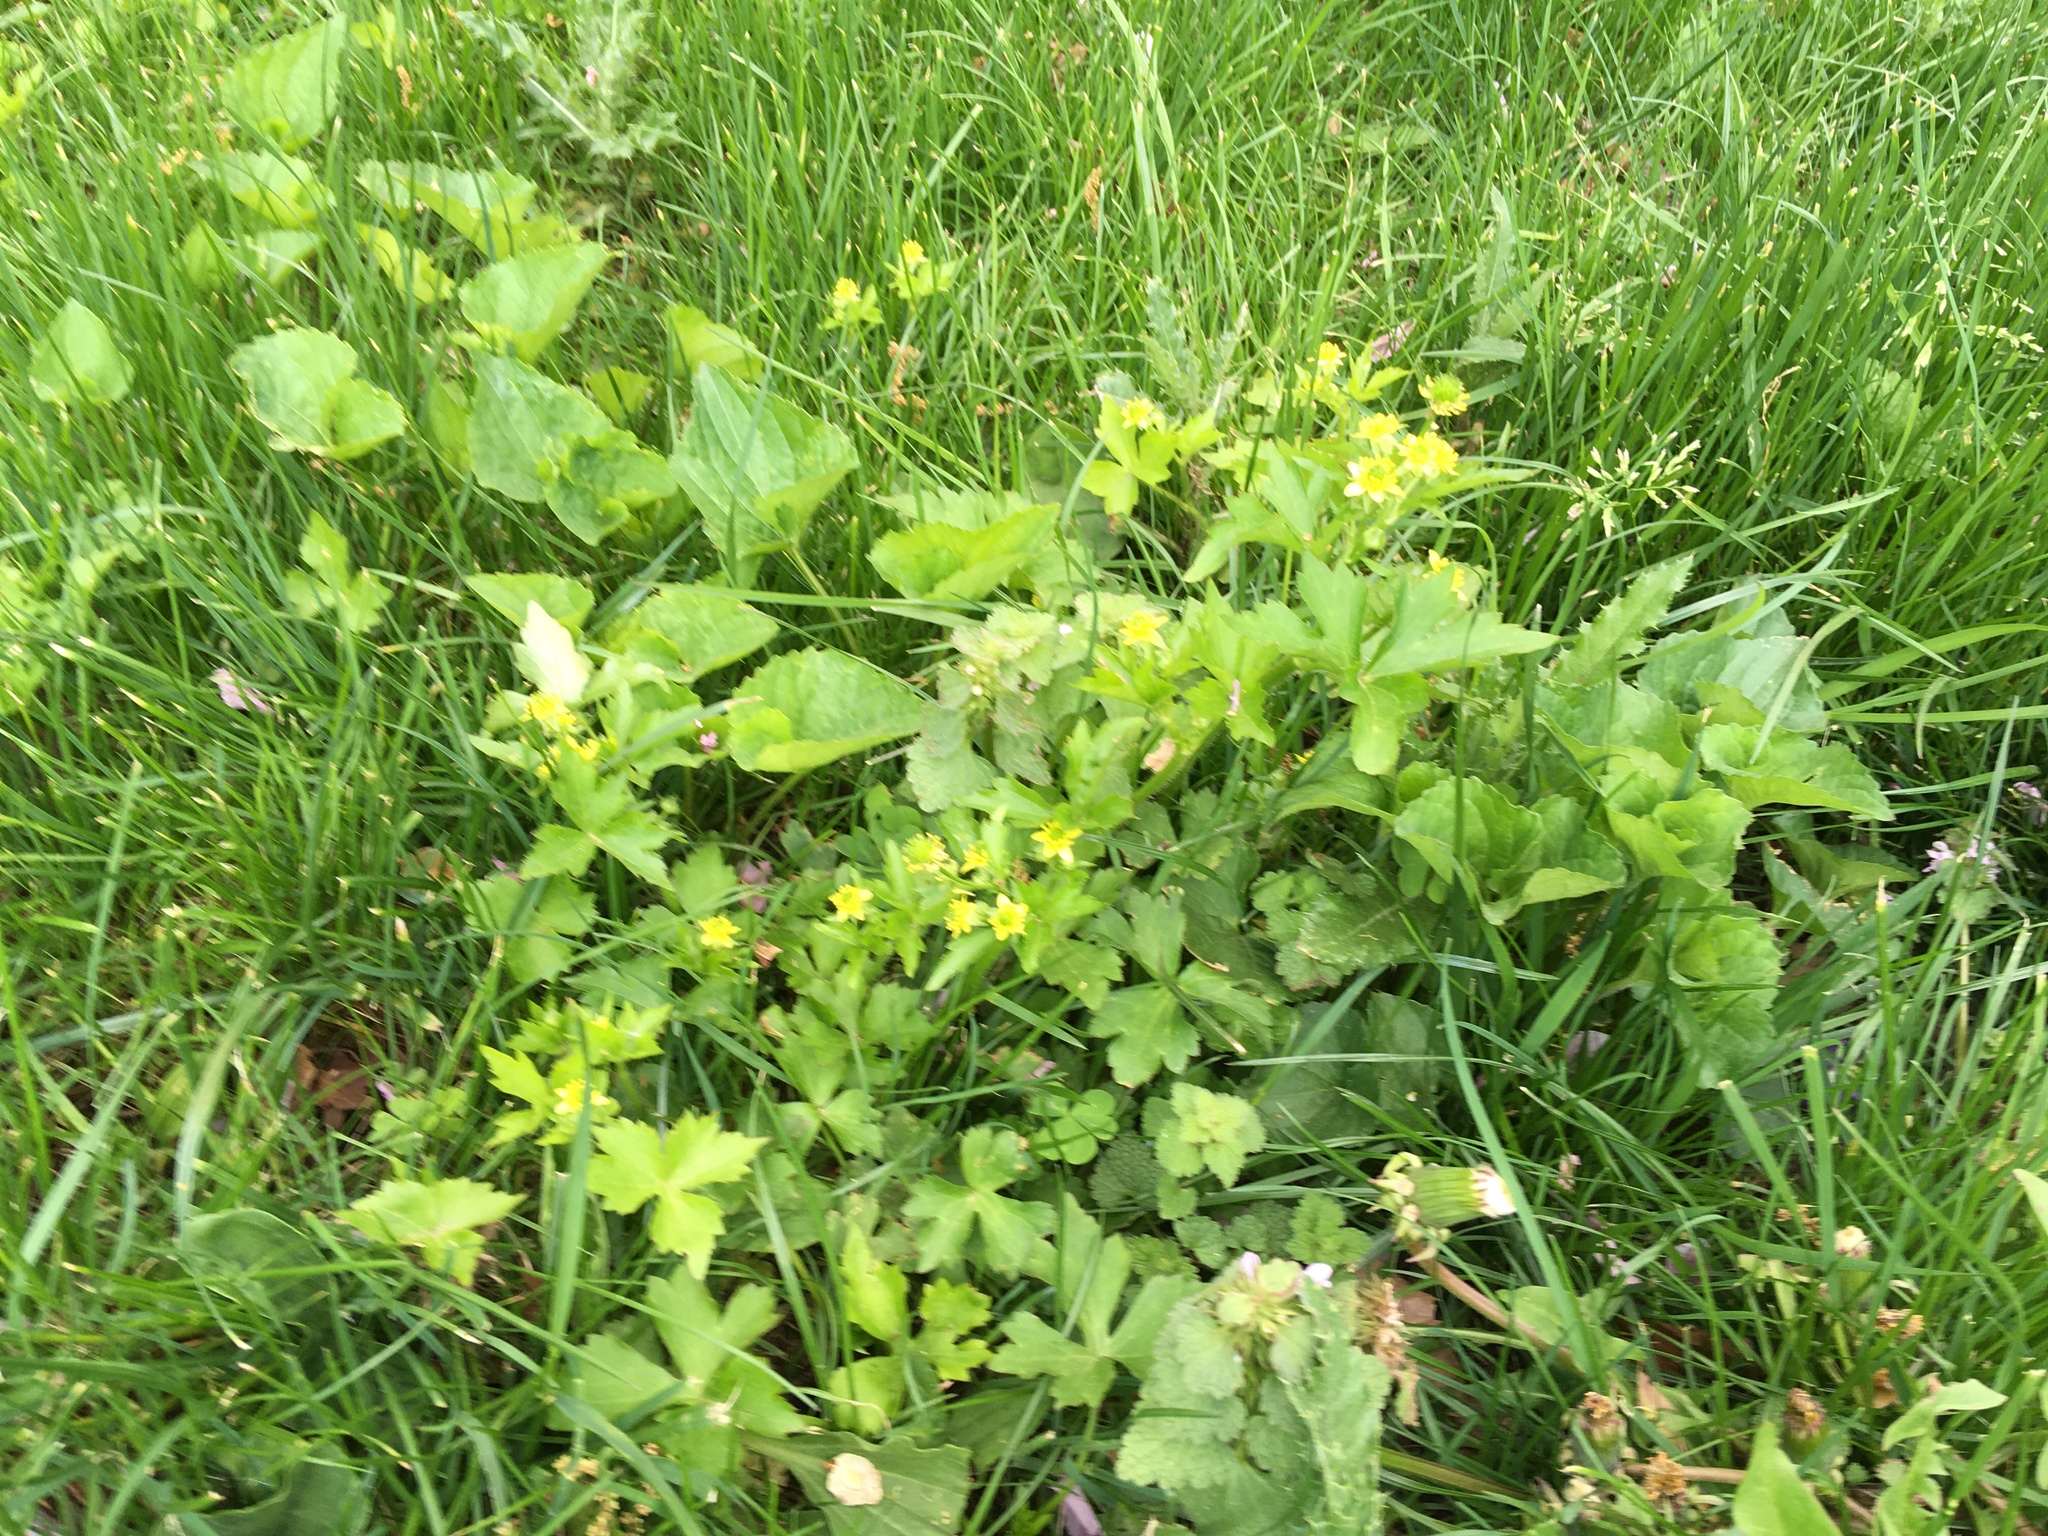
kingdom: Plantae
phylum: Tracheophyta
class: Magnoliopsida
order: Ranunculales
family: Ranunculaceae
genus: Ranunculus
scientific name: Ranunculus recurvatus
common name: Blisterwort
